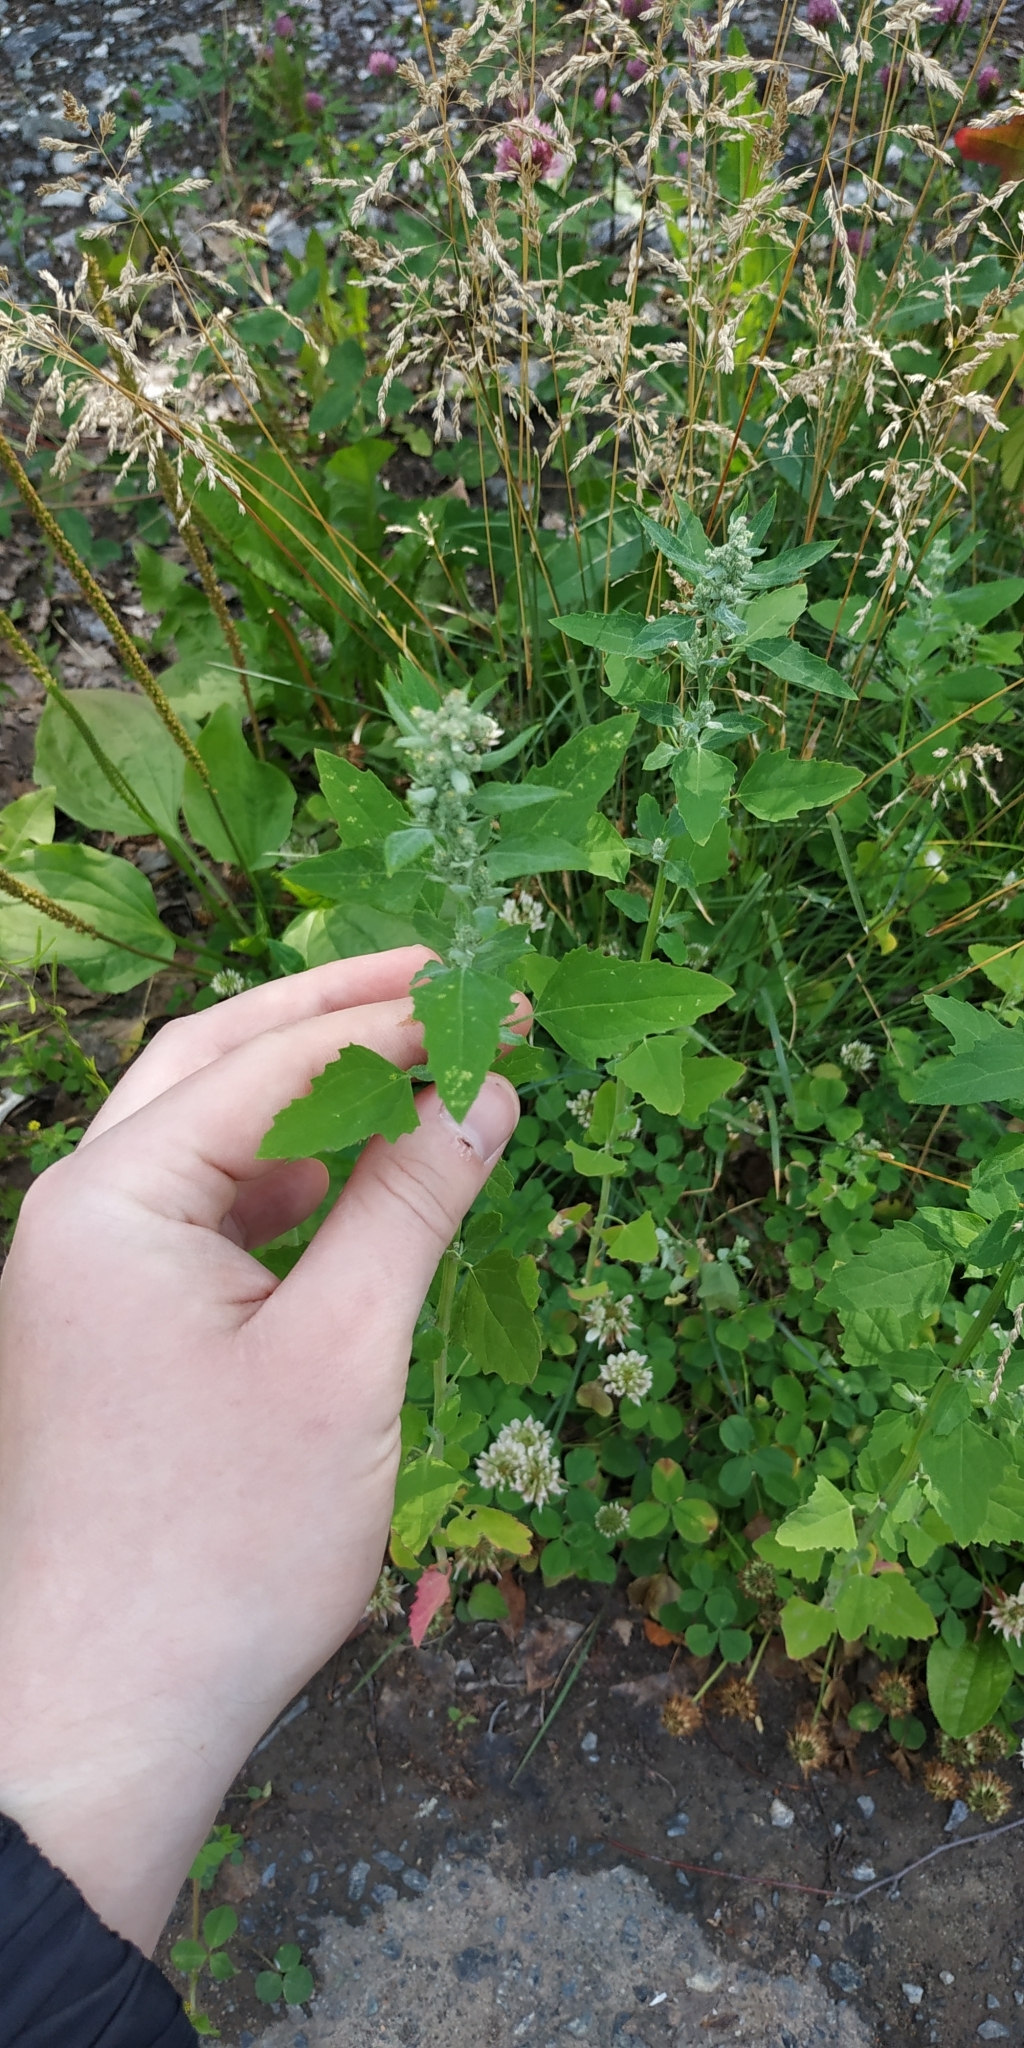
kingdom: Plantae
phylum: Tracheophyta
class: Magnoliopsida
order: Caryophyllales
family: Amaranthaceae
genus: Chenopodium
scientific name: Chenopodium album
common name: Fat-hen
